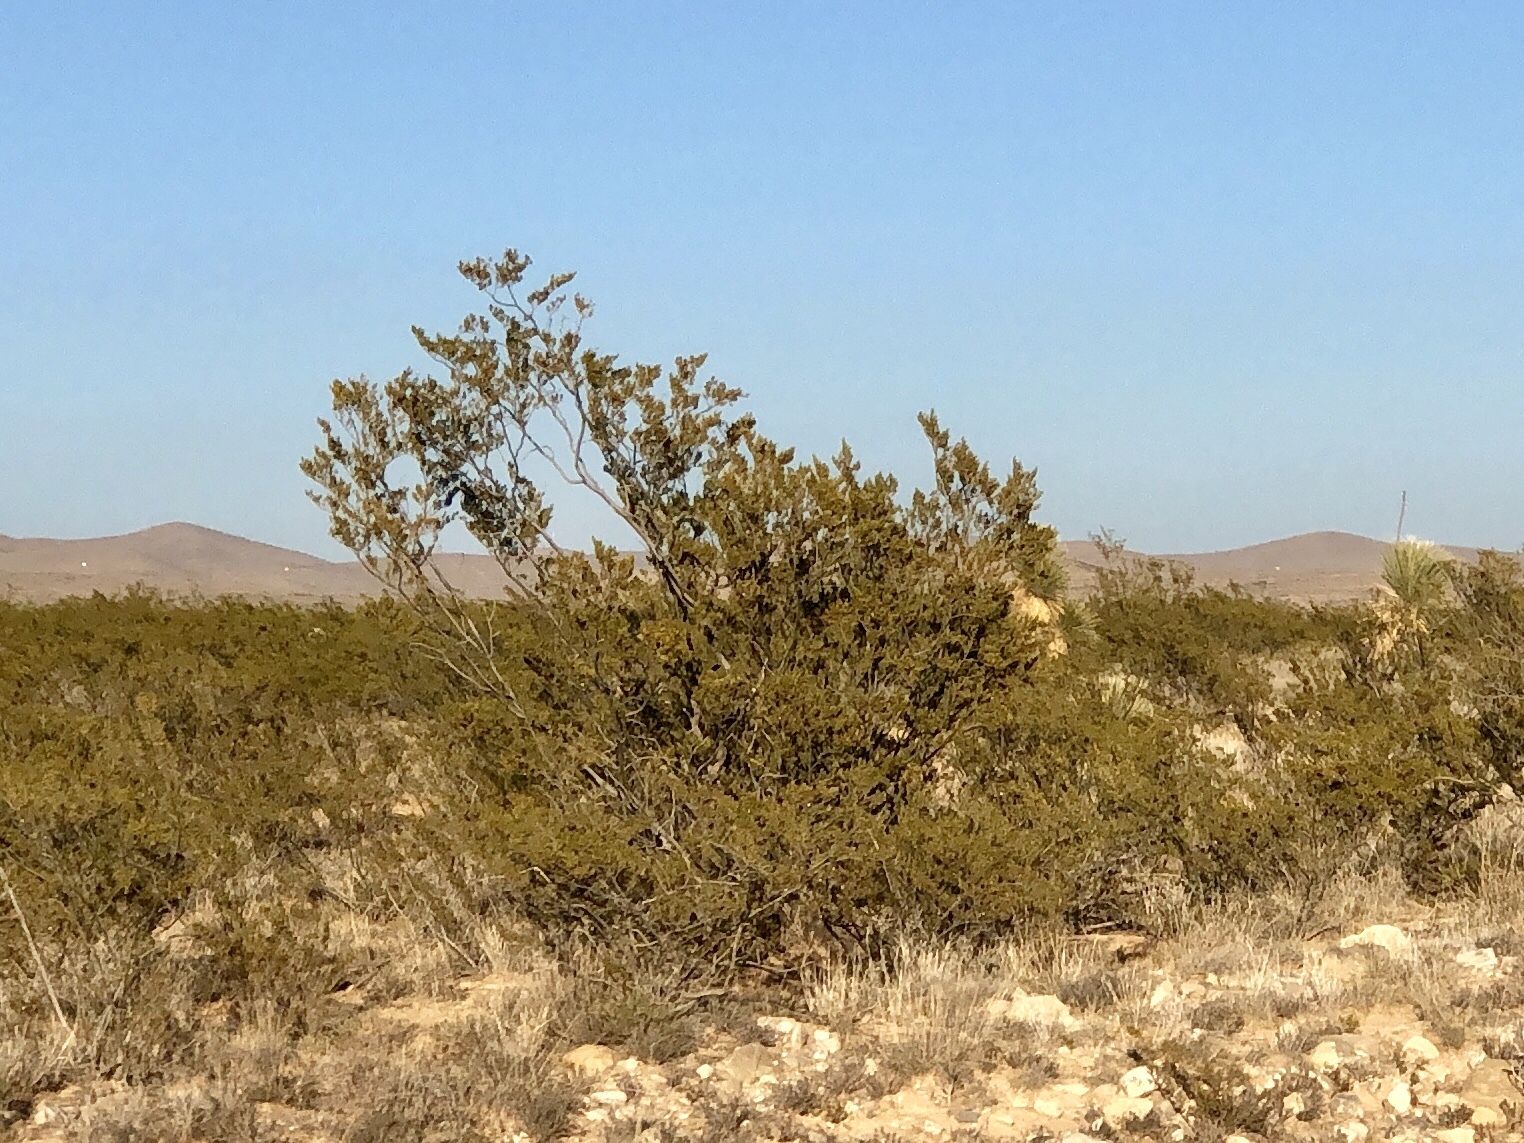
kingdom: Plantae
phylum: Tracheophyta
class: Magnoliopsida
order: Zygophyllales
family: Zygophyllaceae
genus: Larrea
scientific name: Larrea tridentata
